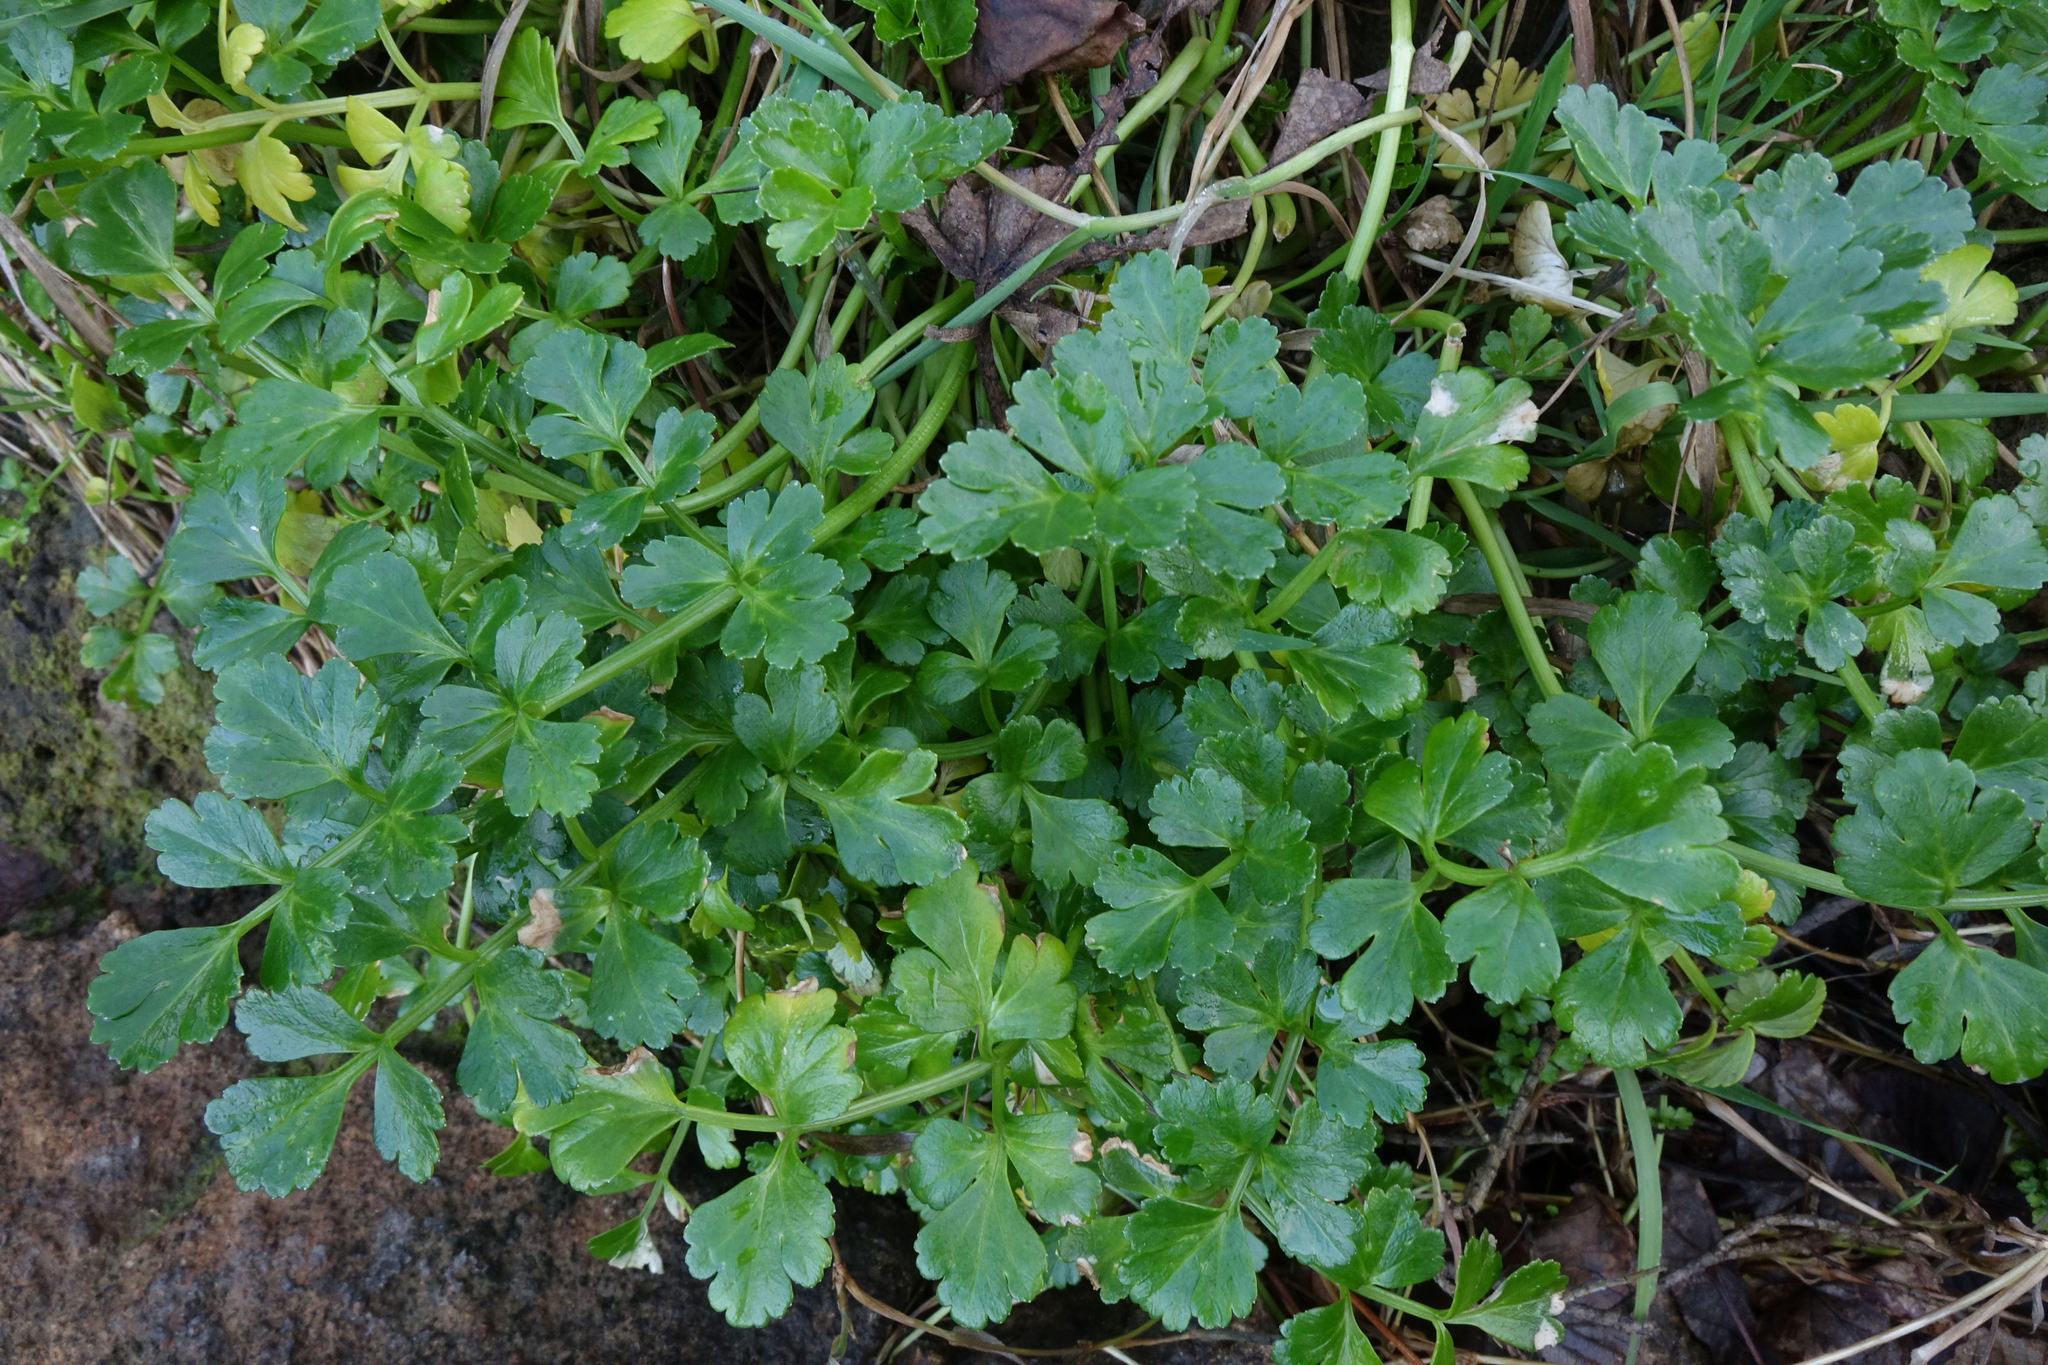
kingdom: Plantae
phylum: Tracheophyta
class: Magnoliopsida
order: Apiales
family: Apiaceae
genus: Apium
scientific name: Apium prostratum
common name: Prostrate marshwort
